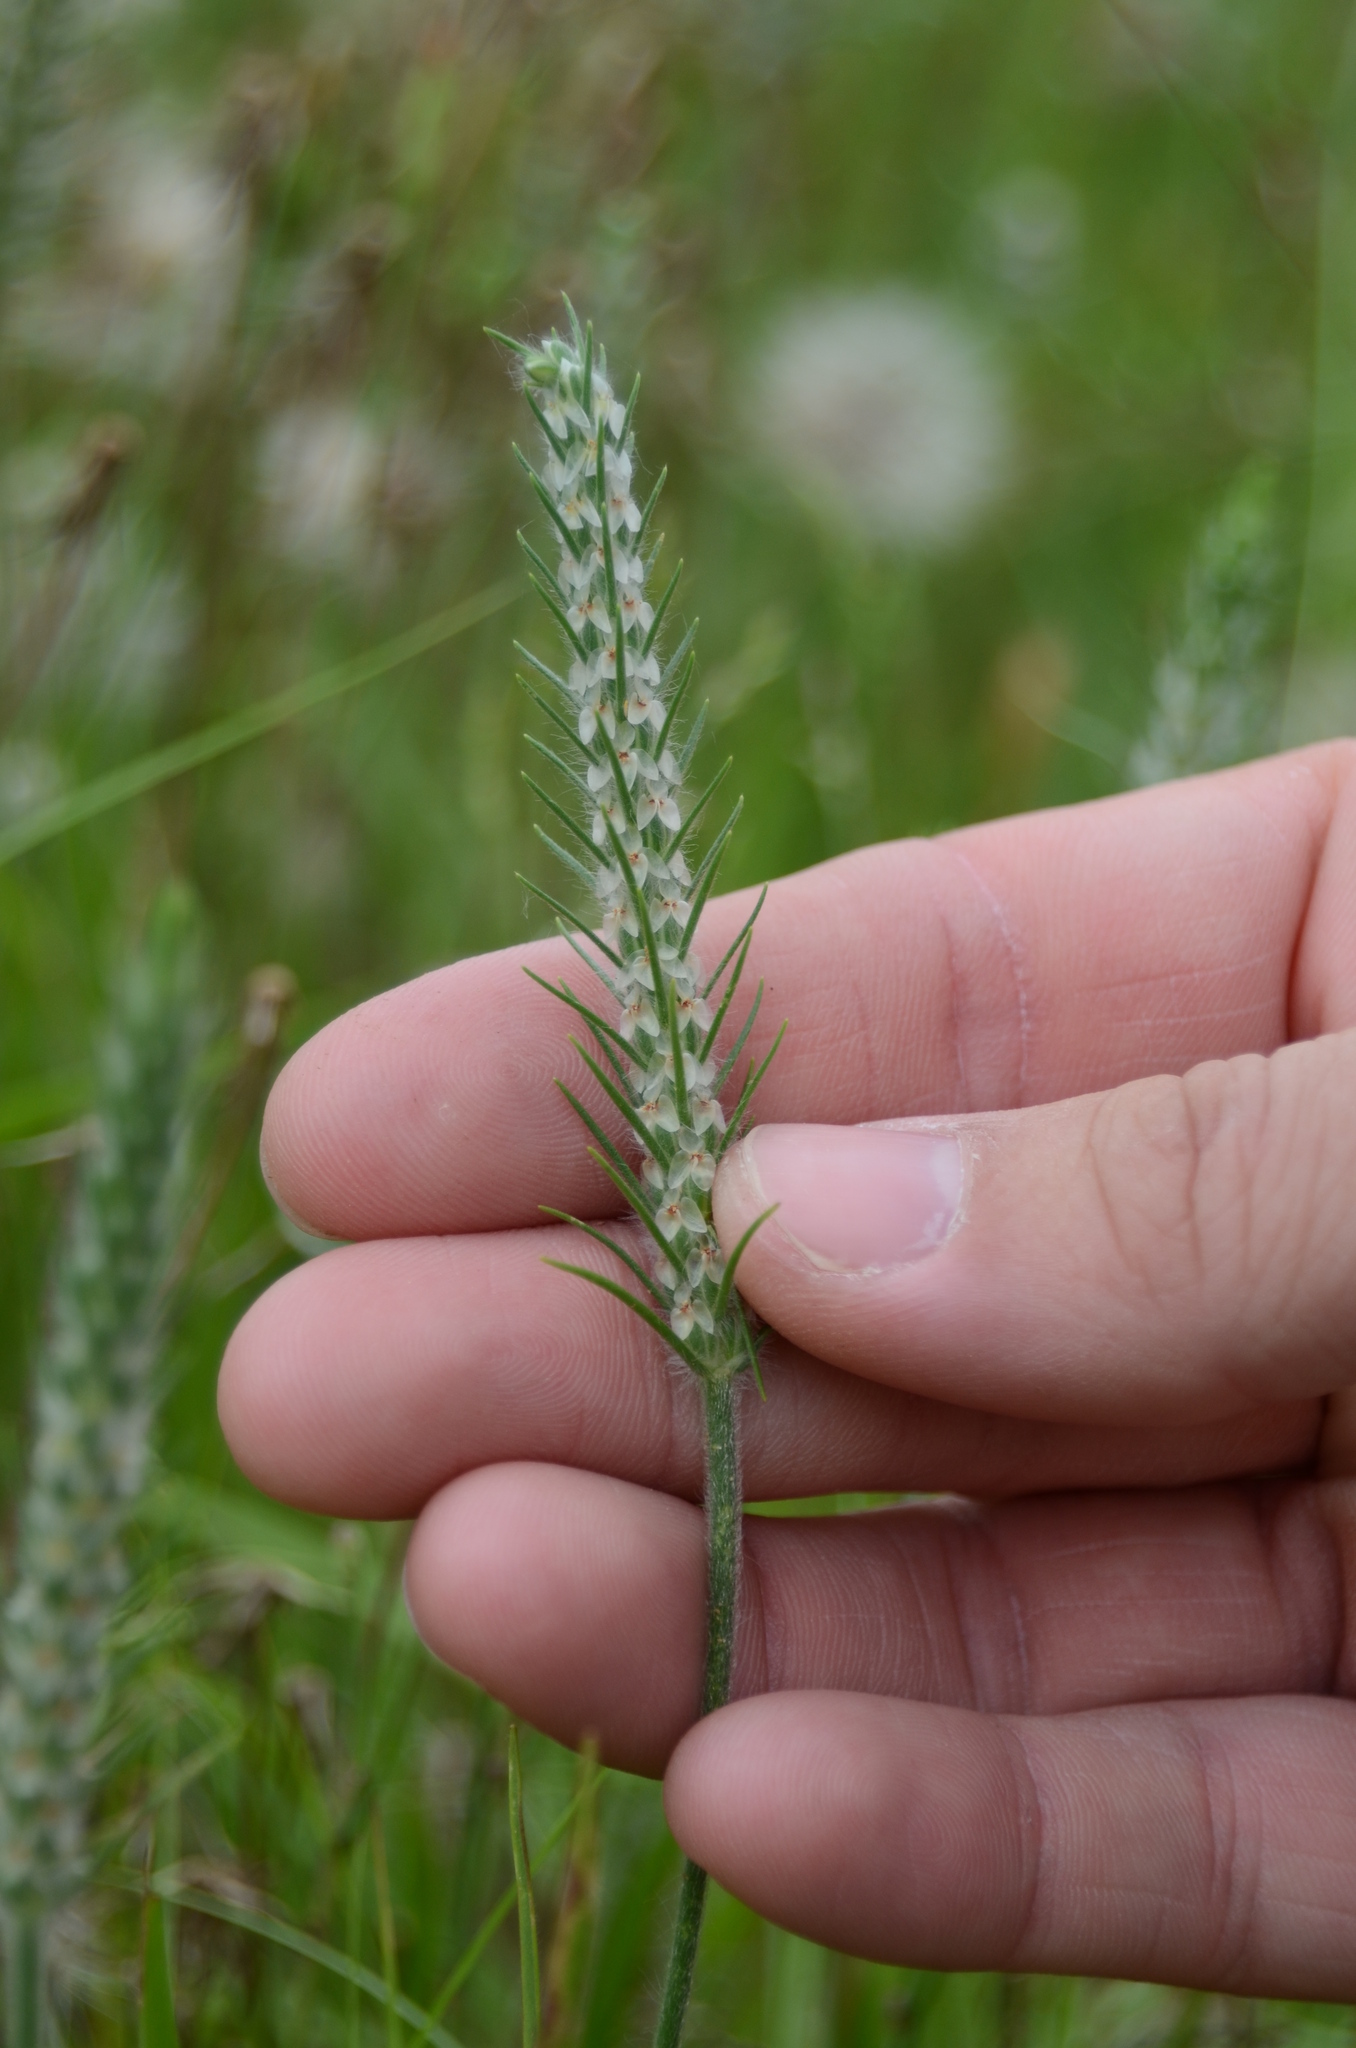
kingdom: Plantae
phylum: Tracheophyta
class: Magnoliopsida
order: Lamiales
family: Plantaginaceae
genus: Plantago
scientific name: Plantago aristata
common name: Bracted plantain
